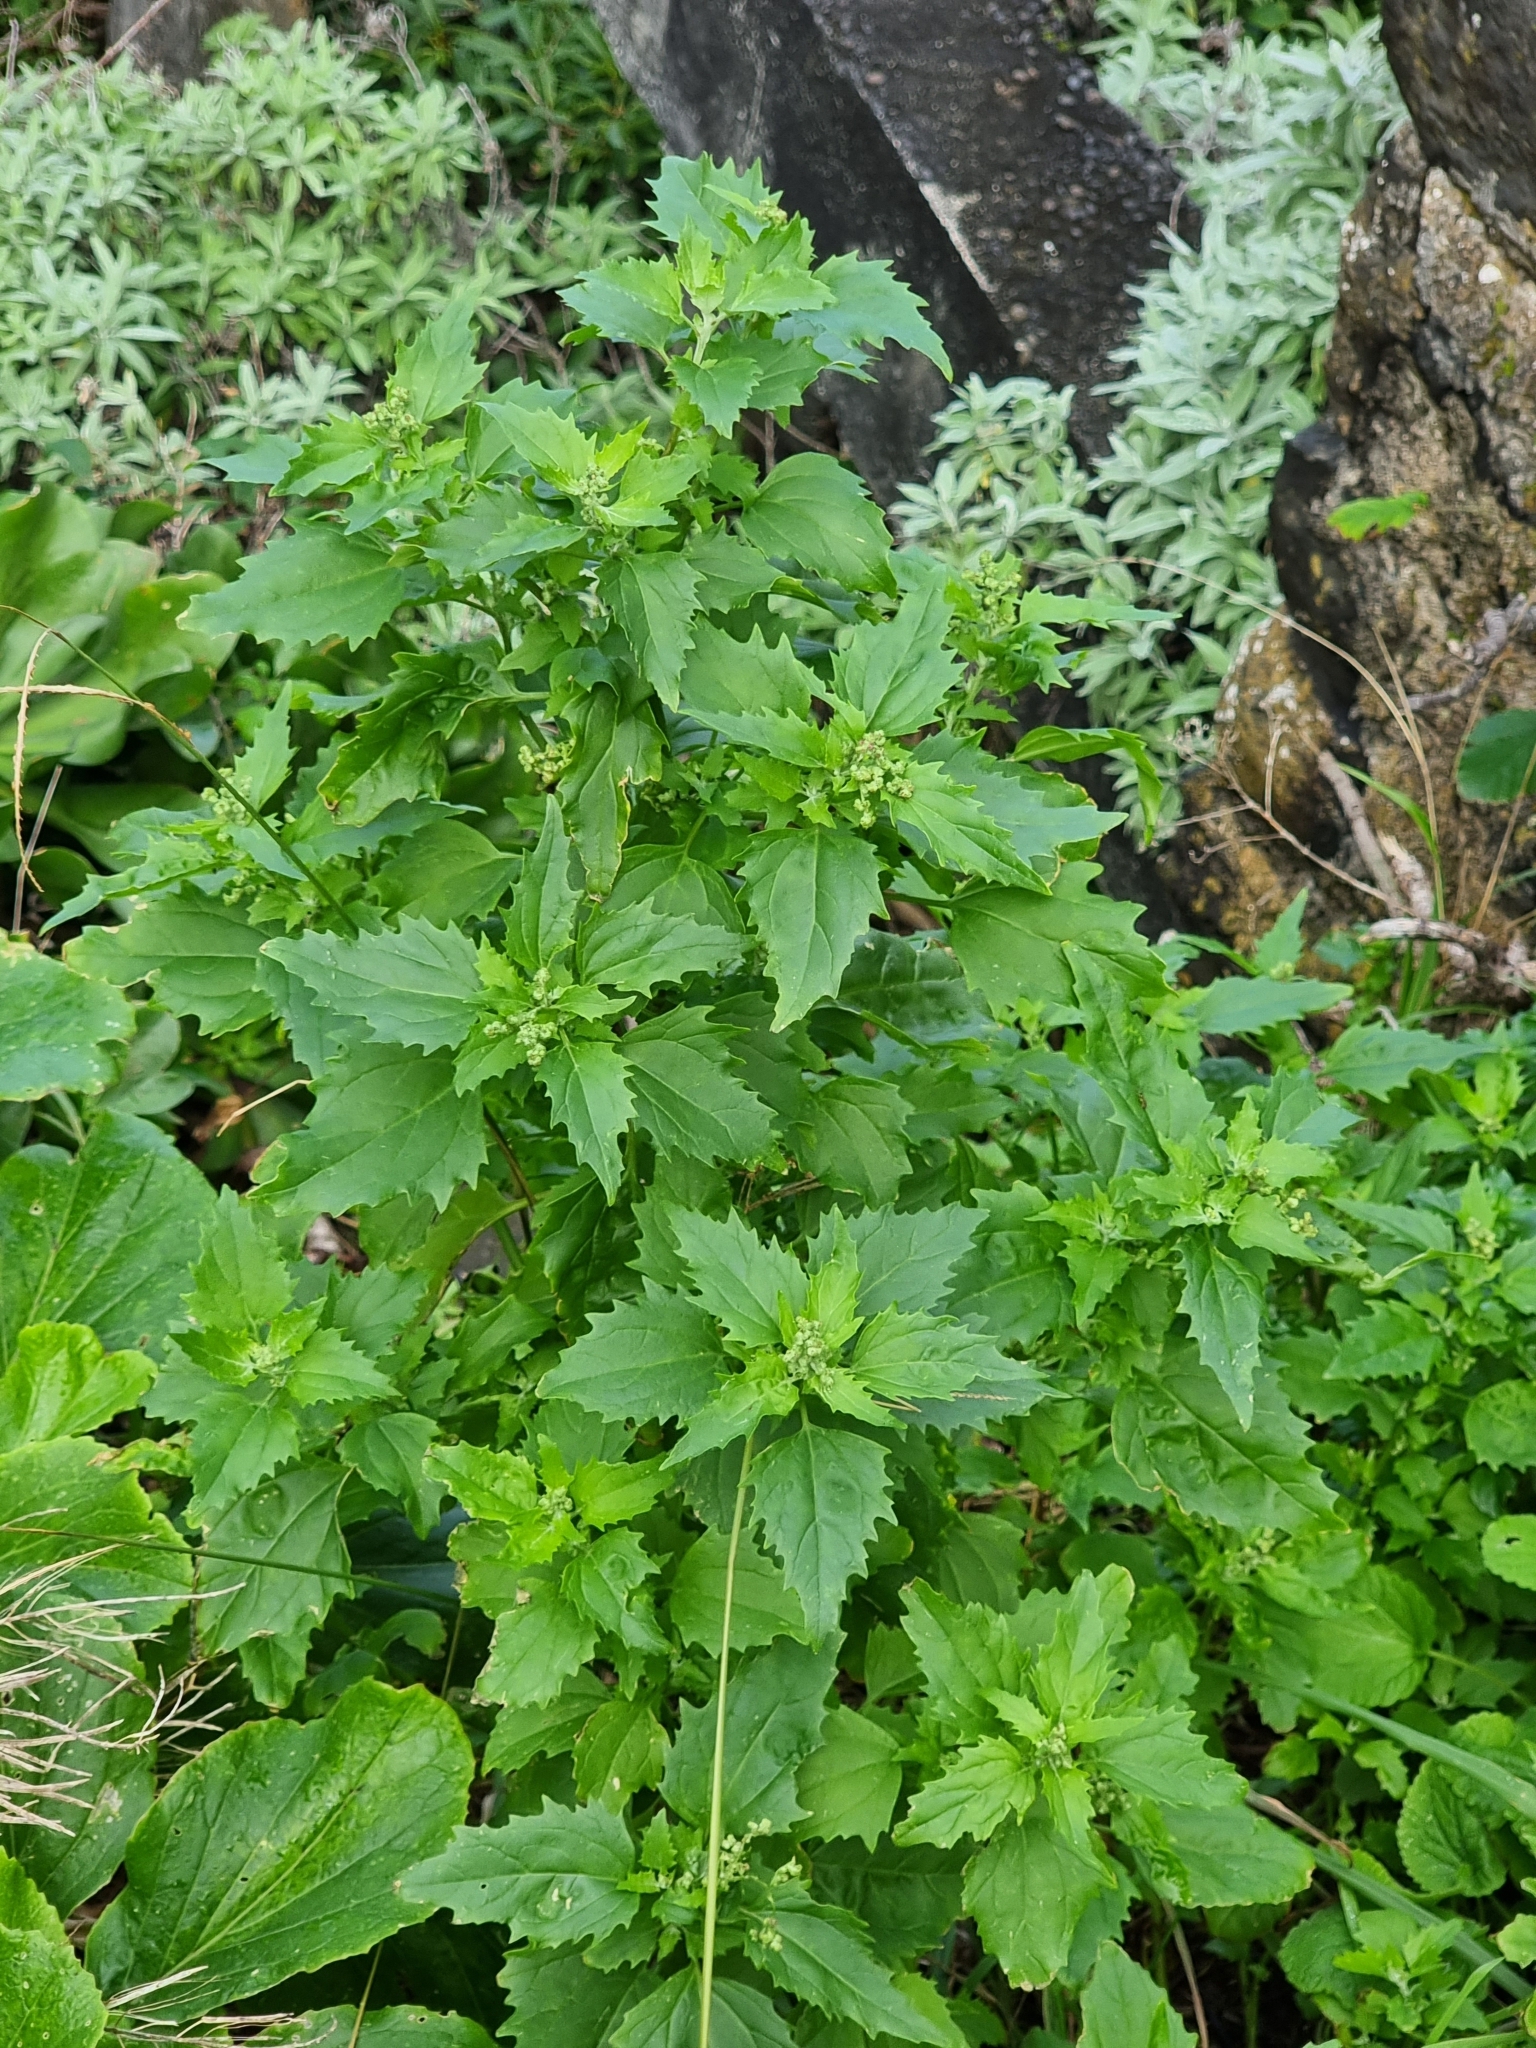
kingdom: Plantae
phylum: Tracheophyta
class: Magnoliopsida
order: Caryophyllales
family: Amaranthaceae
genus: Chenopodiastrum
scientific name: Chenopodiastrum murale
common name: Sowbane
